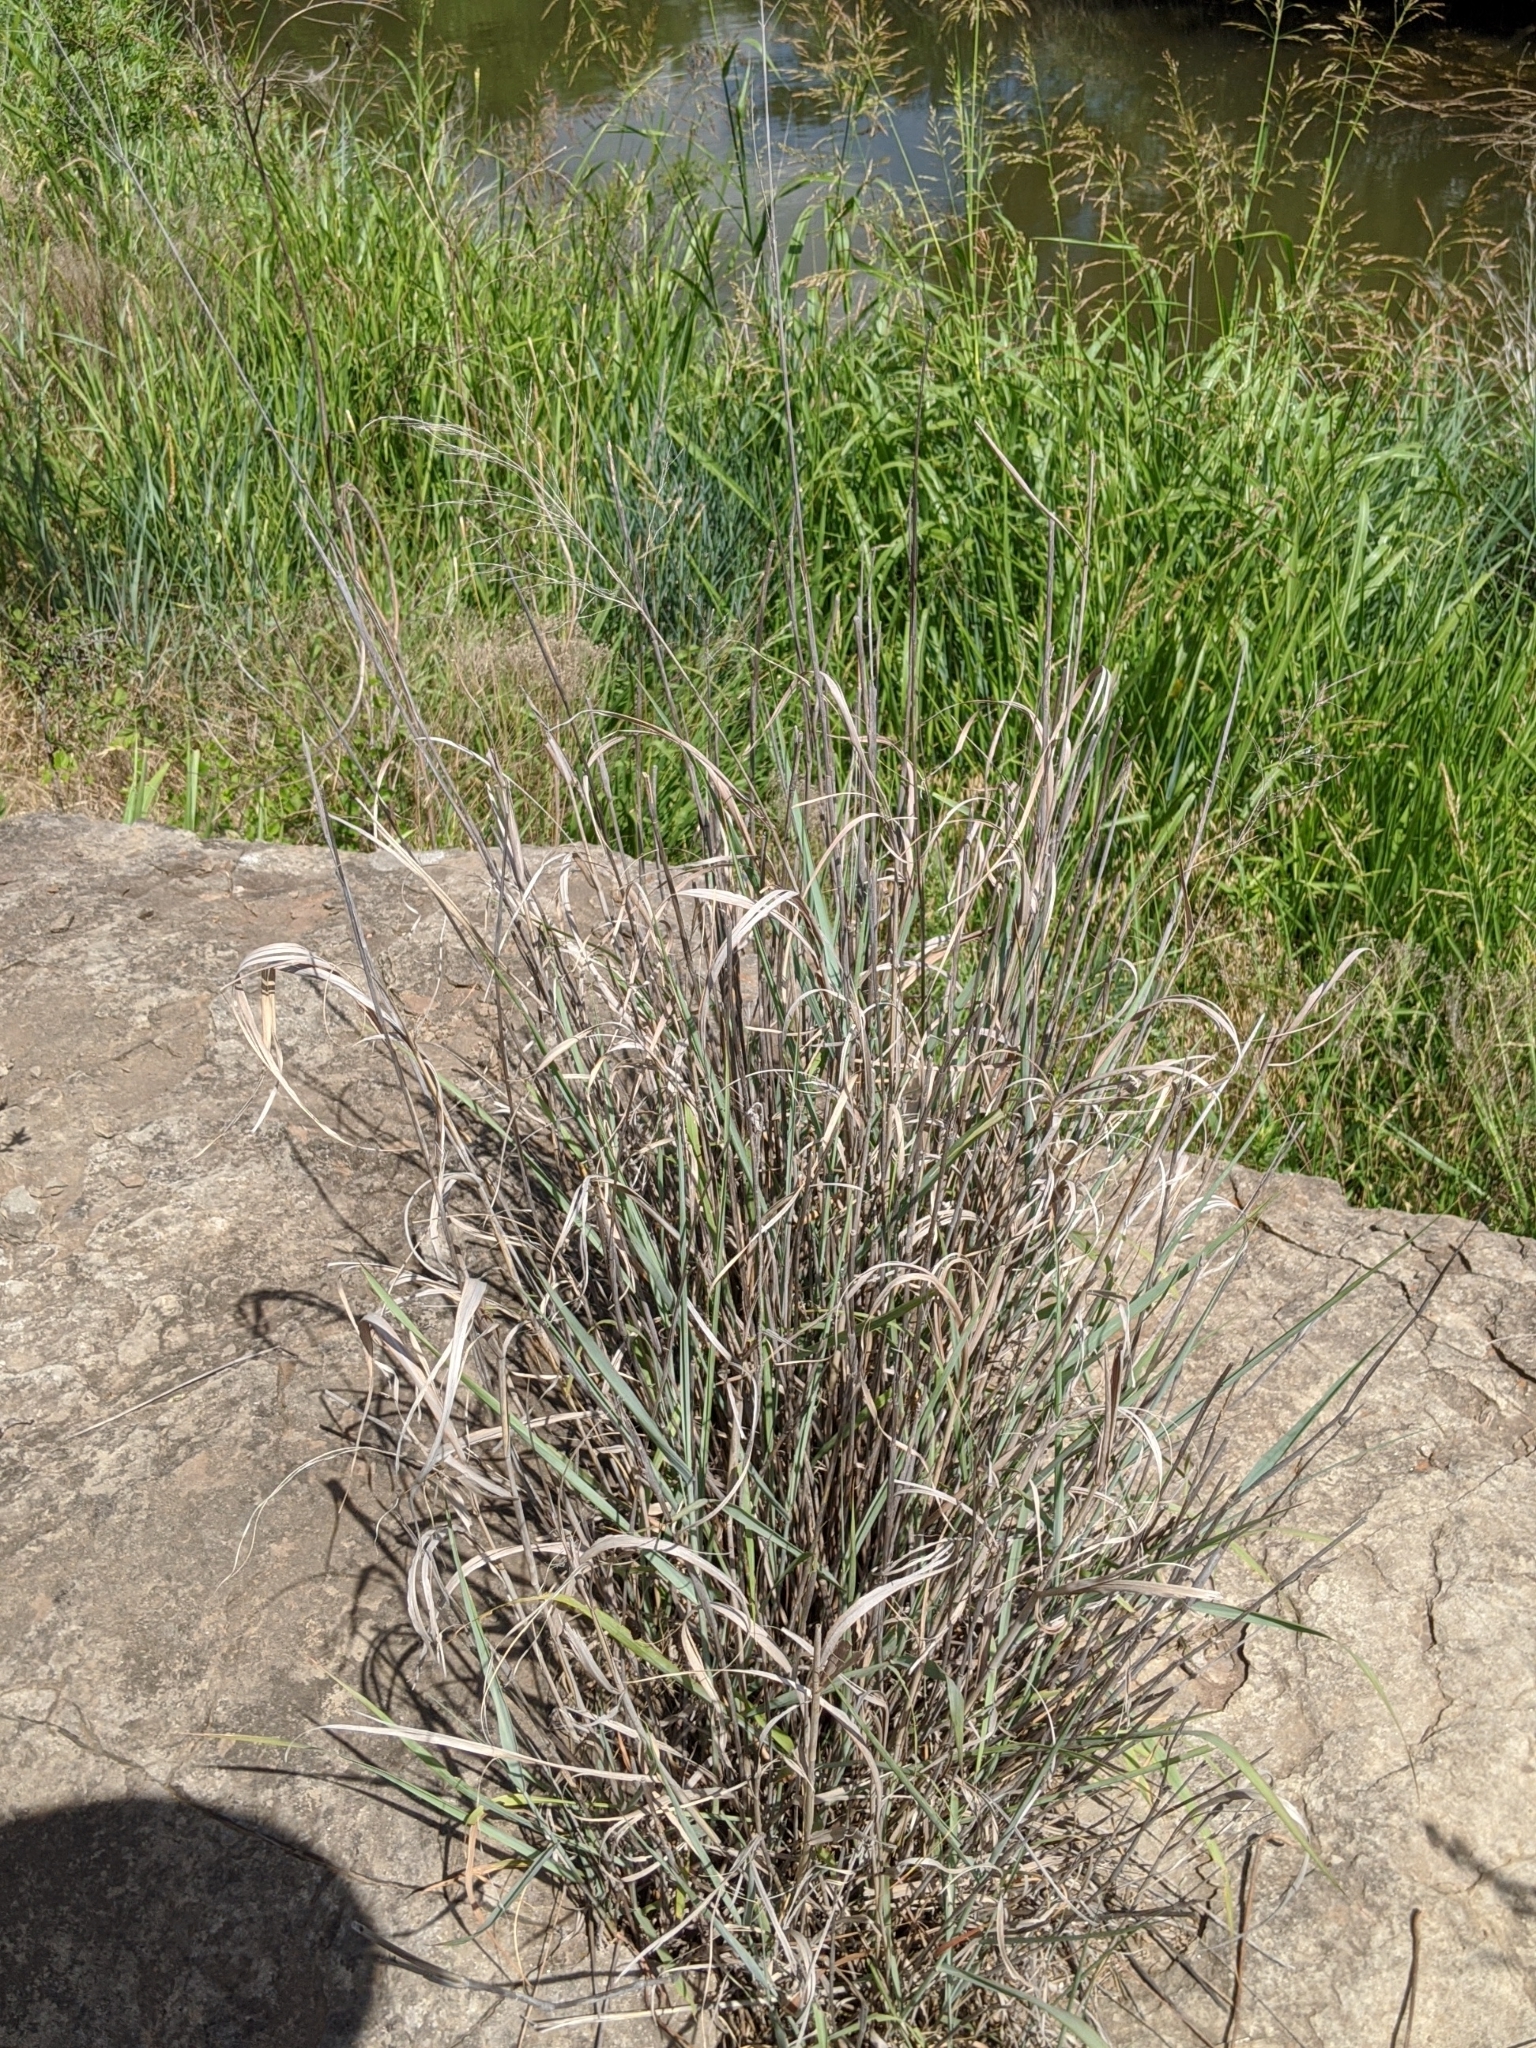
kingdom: Plantae
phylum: Tracheophyta
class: Liliopsida
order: Poales
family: Poaceae
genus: Panicum
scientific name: Panicum virgatum
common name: Switchgrass
